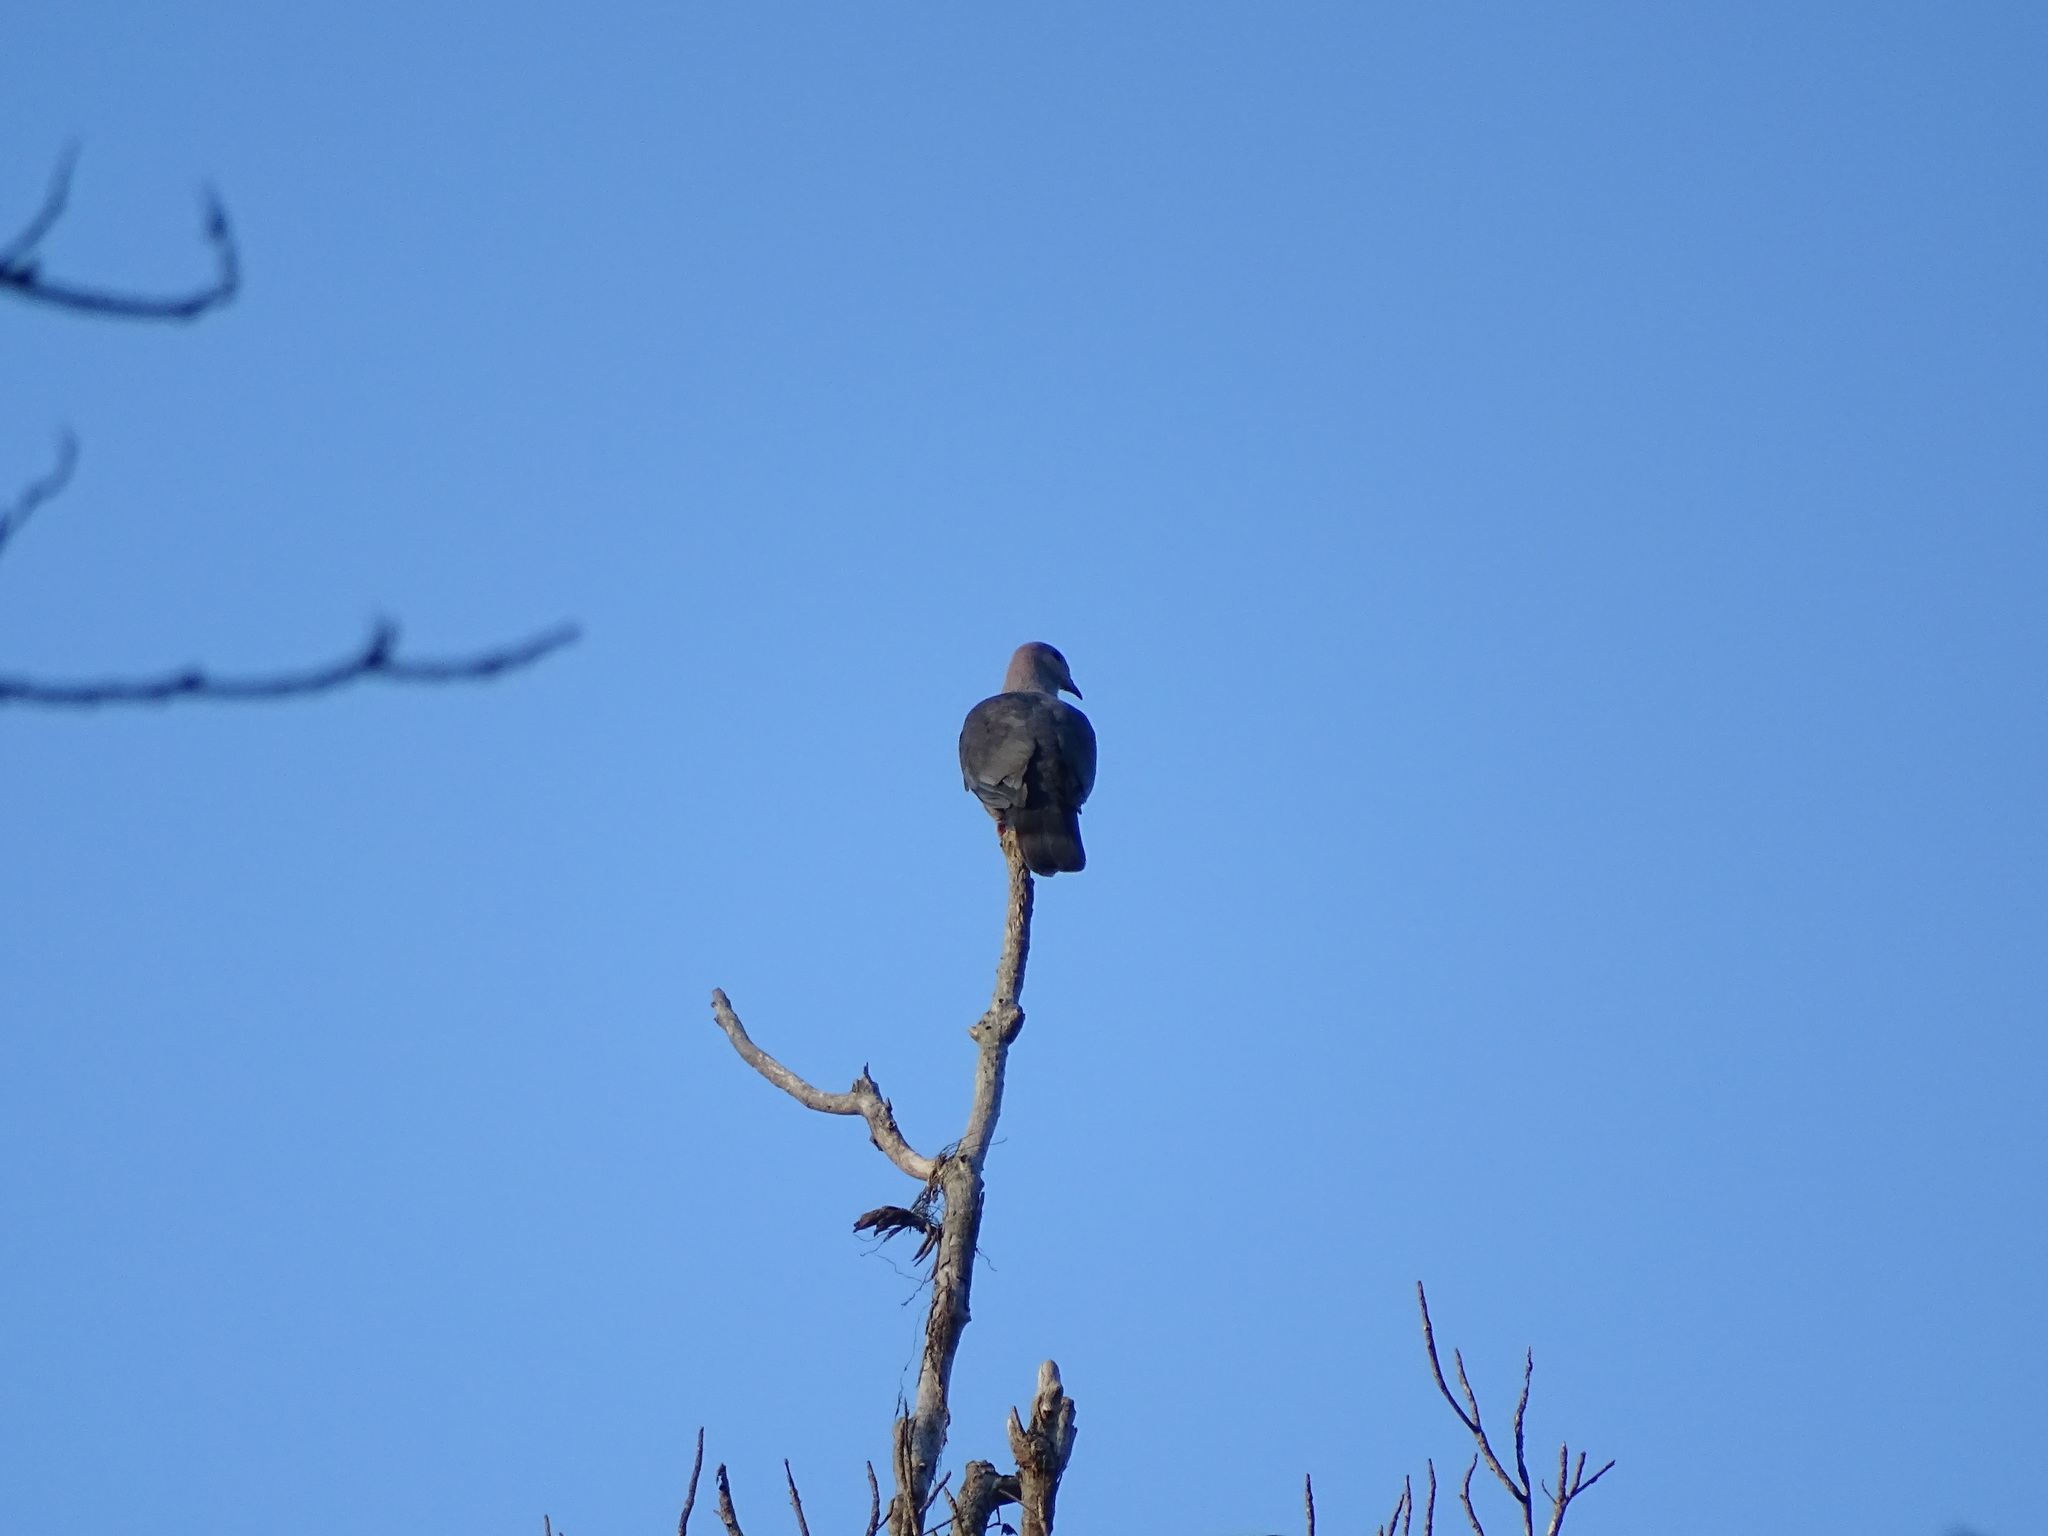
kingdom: Animalia
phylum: Chordata
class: Aves
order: Columbiformes
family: Columbidae
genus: Ducula
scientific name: Ducula lacernulata
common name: Dark-backed imperial pigeon
